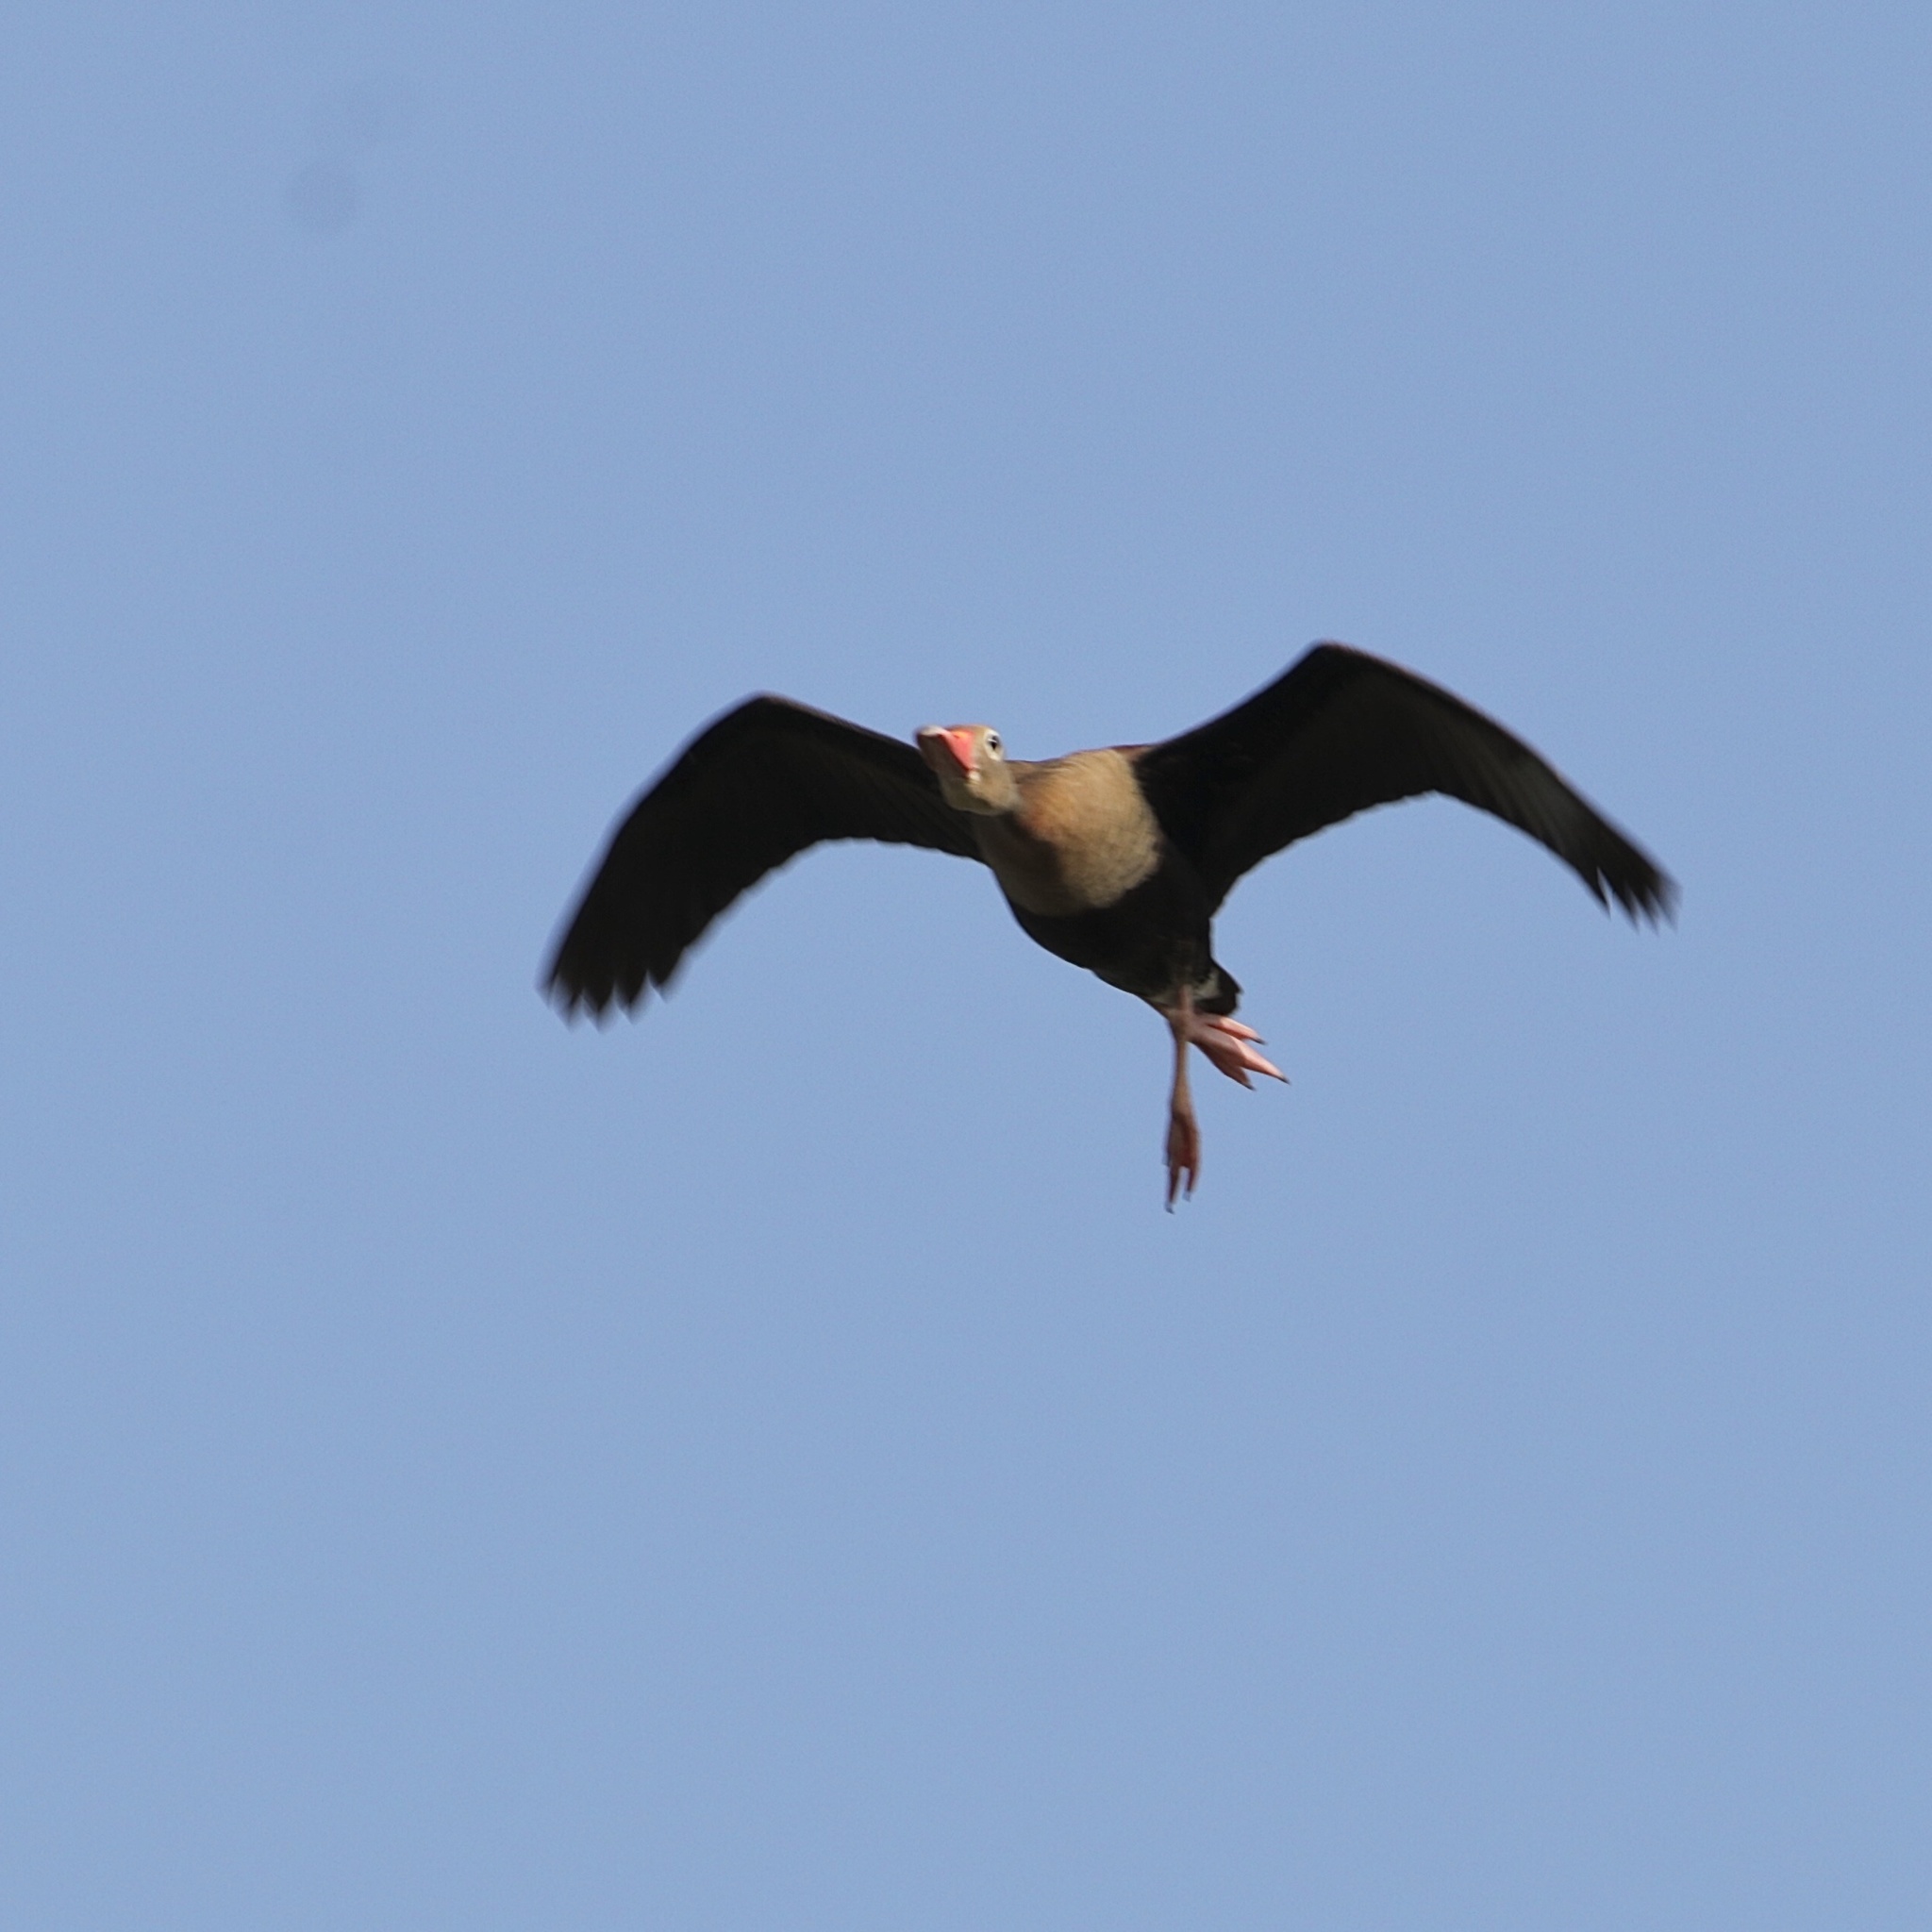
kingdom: Animalia
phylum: Chordata
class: Aves
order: Anseriformes
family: Anatidae
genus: Dendrocygna
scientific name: Dendrocygna autumnalis
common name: Black-bellied whistling duck
